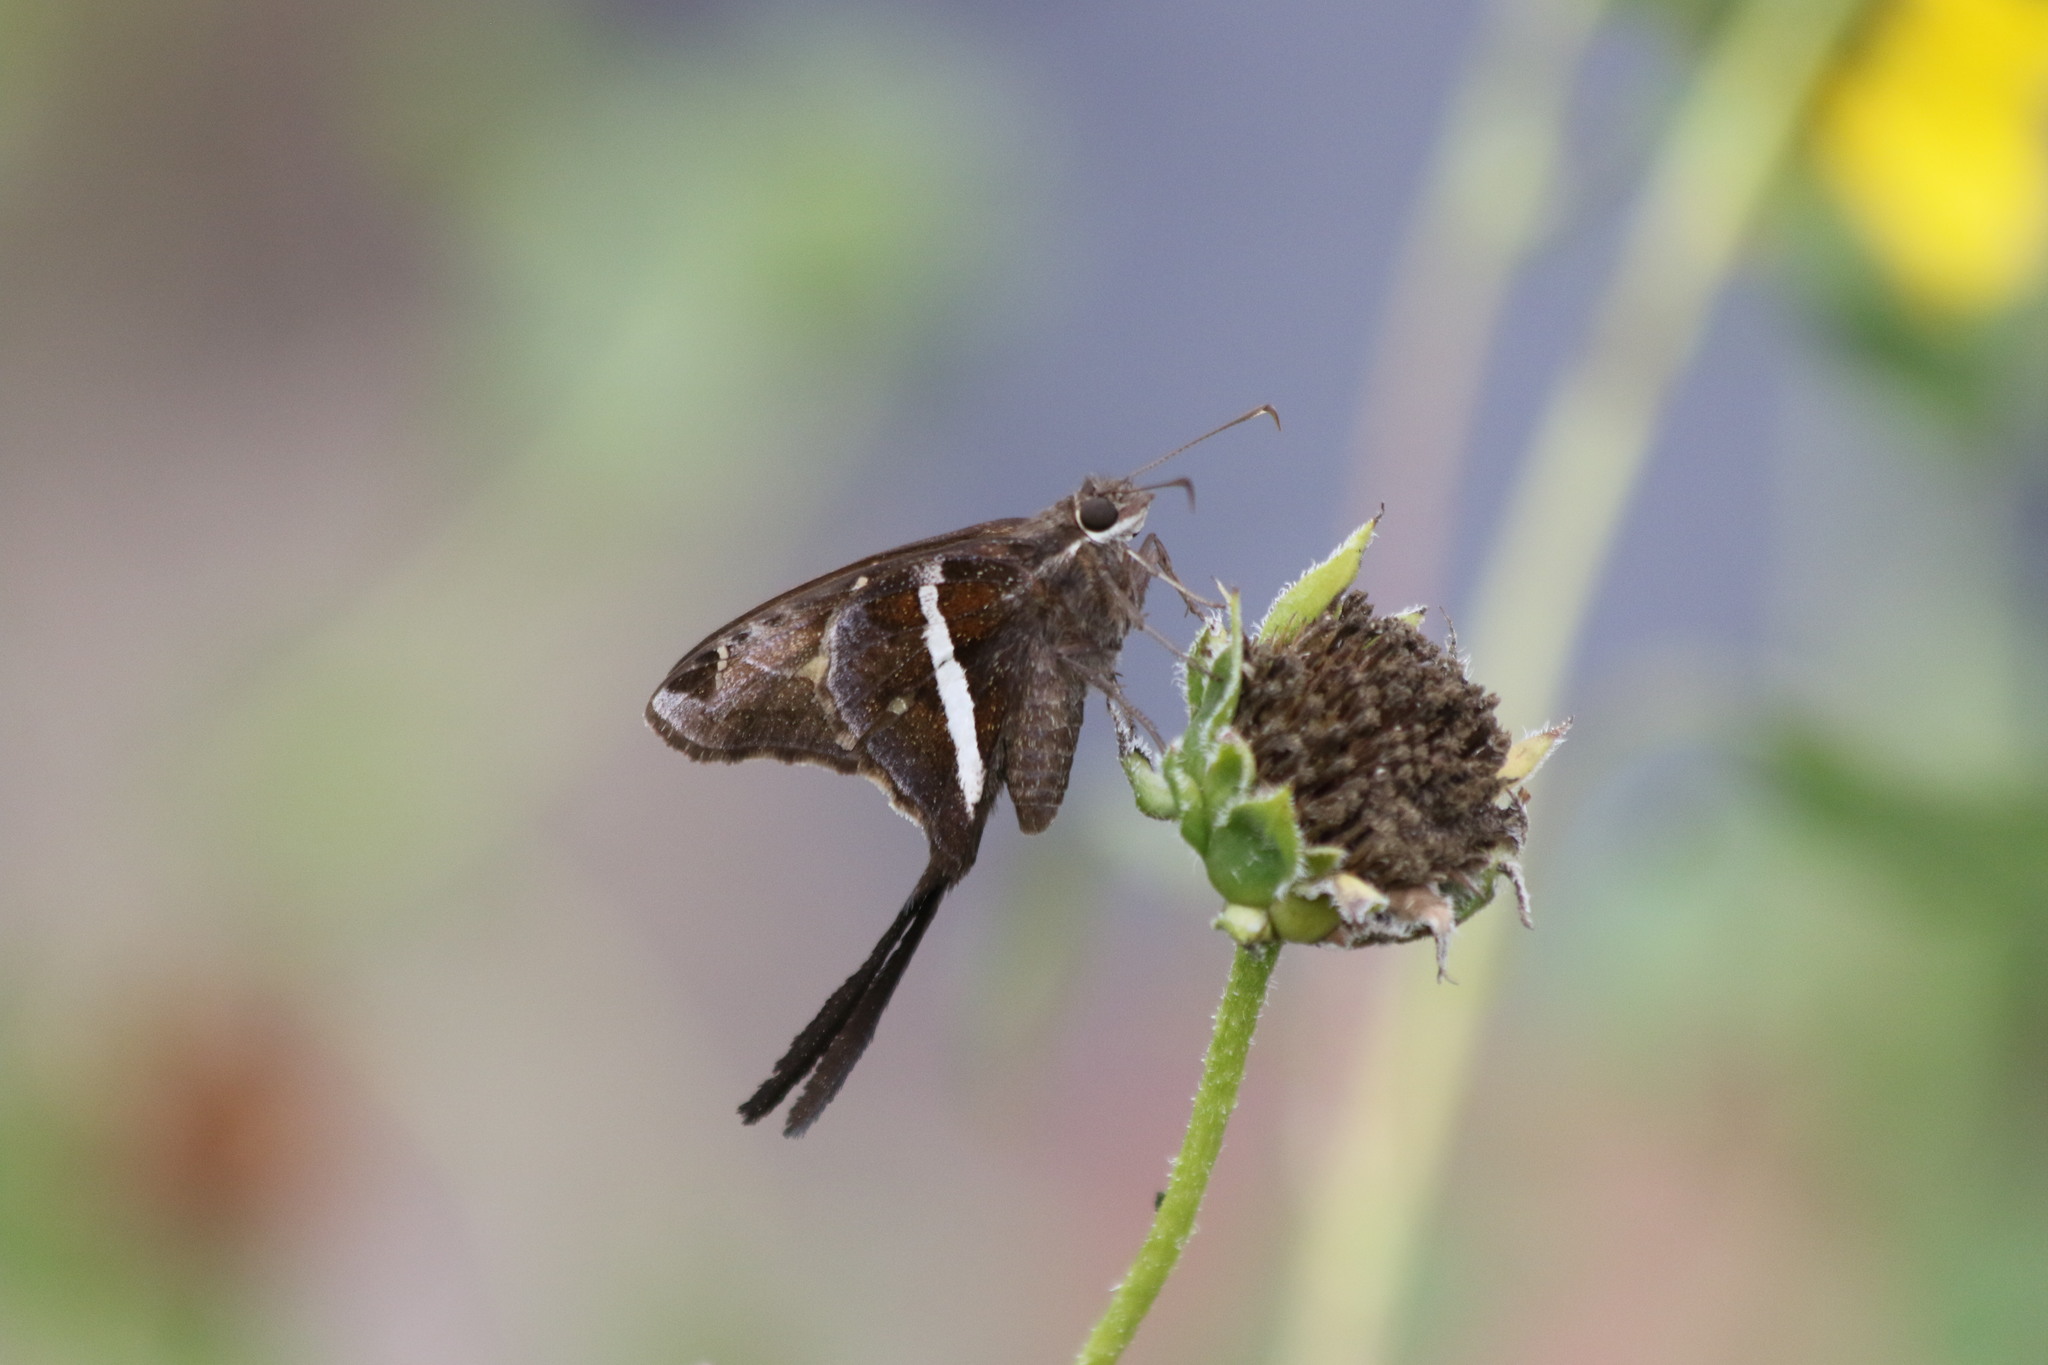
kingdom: Animalia
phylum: Arthropoda
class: Insecta
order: Lepidoptera
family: Hesperiidae
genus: Chioides
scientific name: Chioides catillus
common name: Silverbanded skipper
